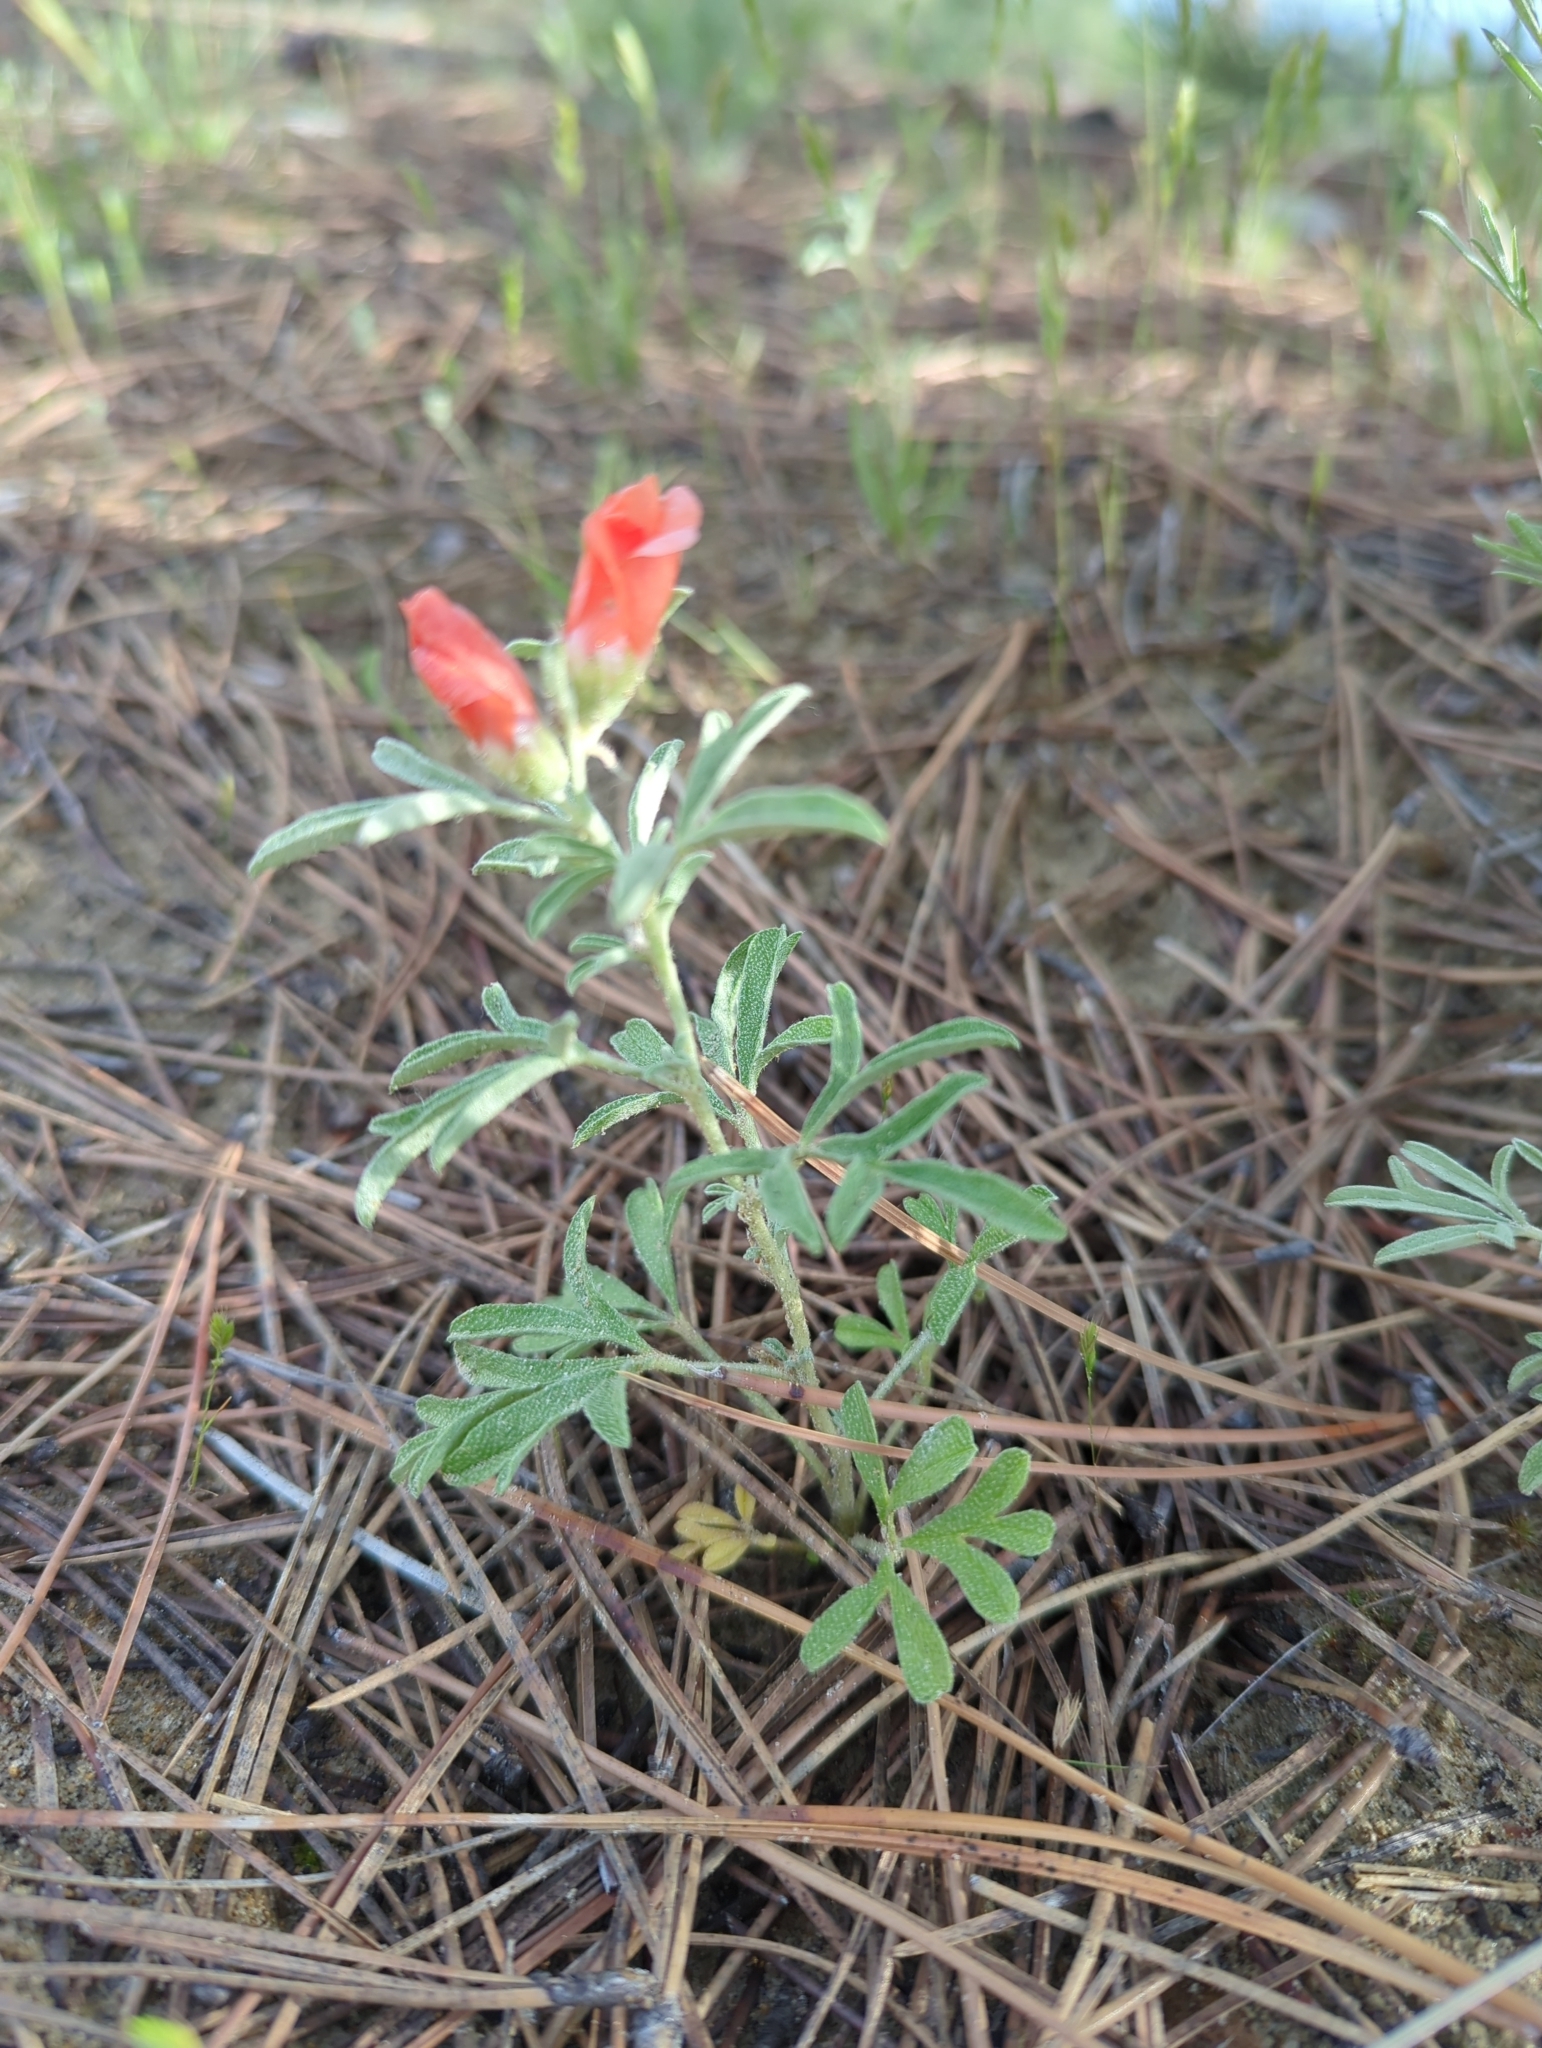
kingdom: Plantae
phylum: Tracheophyta
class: Magnoliopsida
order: Malvales
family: Malvaceae
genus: Sphaeralcea
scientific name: Sphaeralcea coccinea
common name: Moss-rose
